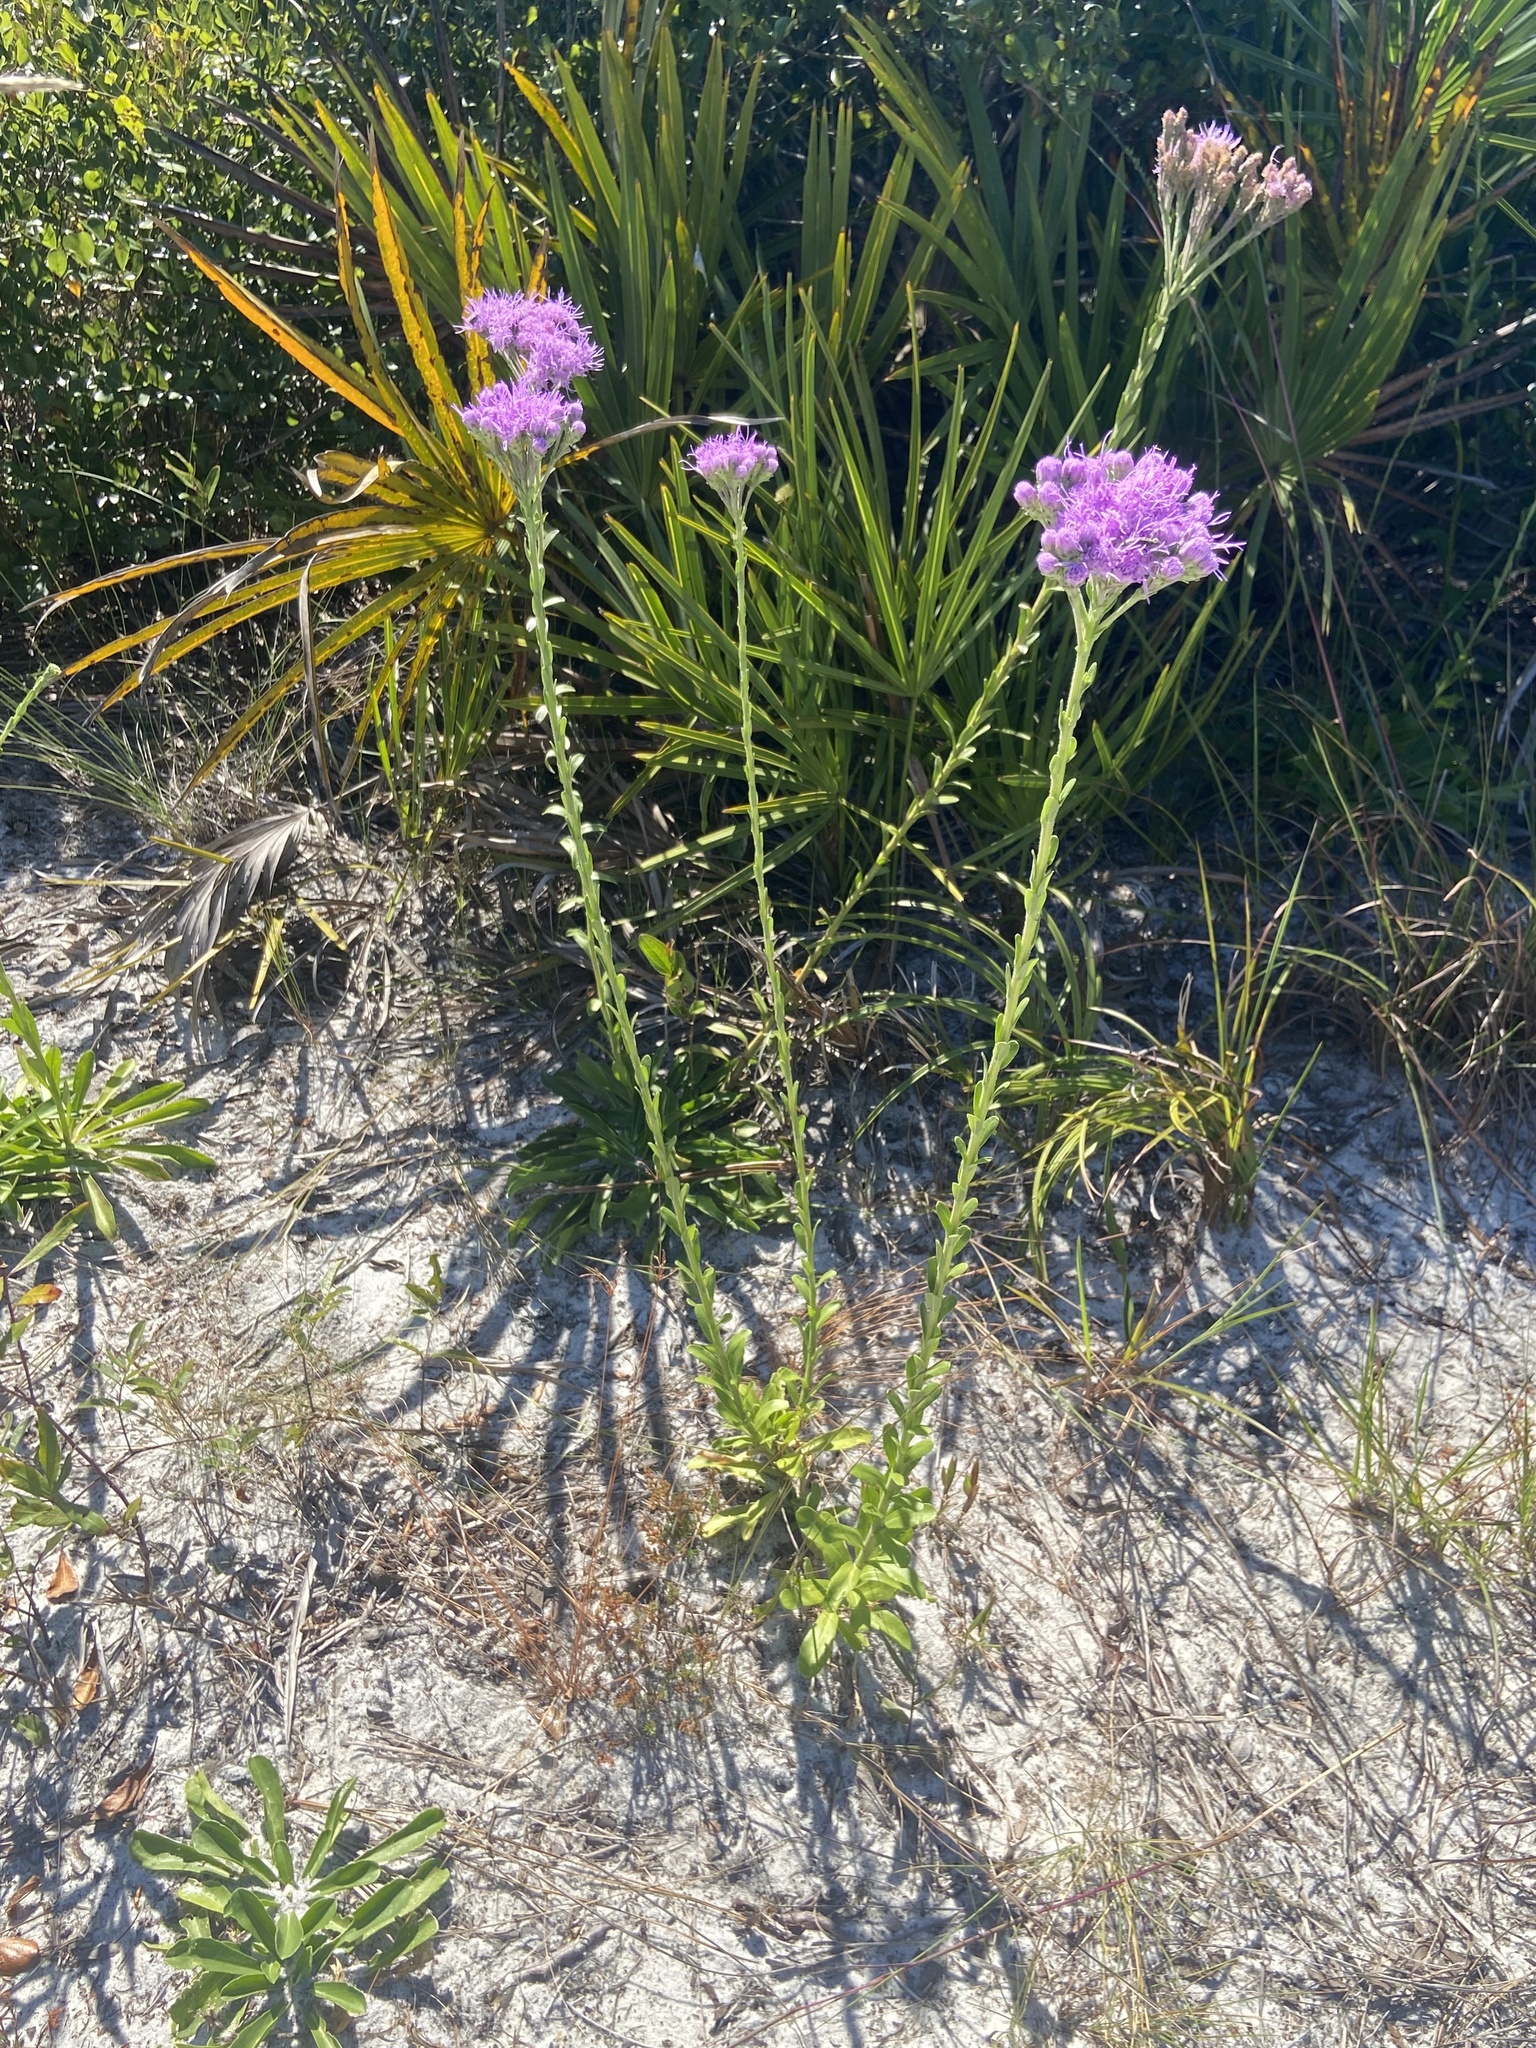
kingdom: Plantae
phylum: Tracheophyta
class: Magnoliopsida
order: Asterales
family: Asteraceae
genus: Carphephorus
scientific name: Carphephorus corymbosus
